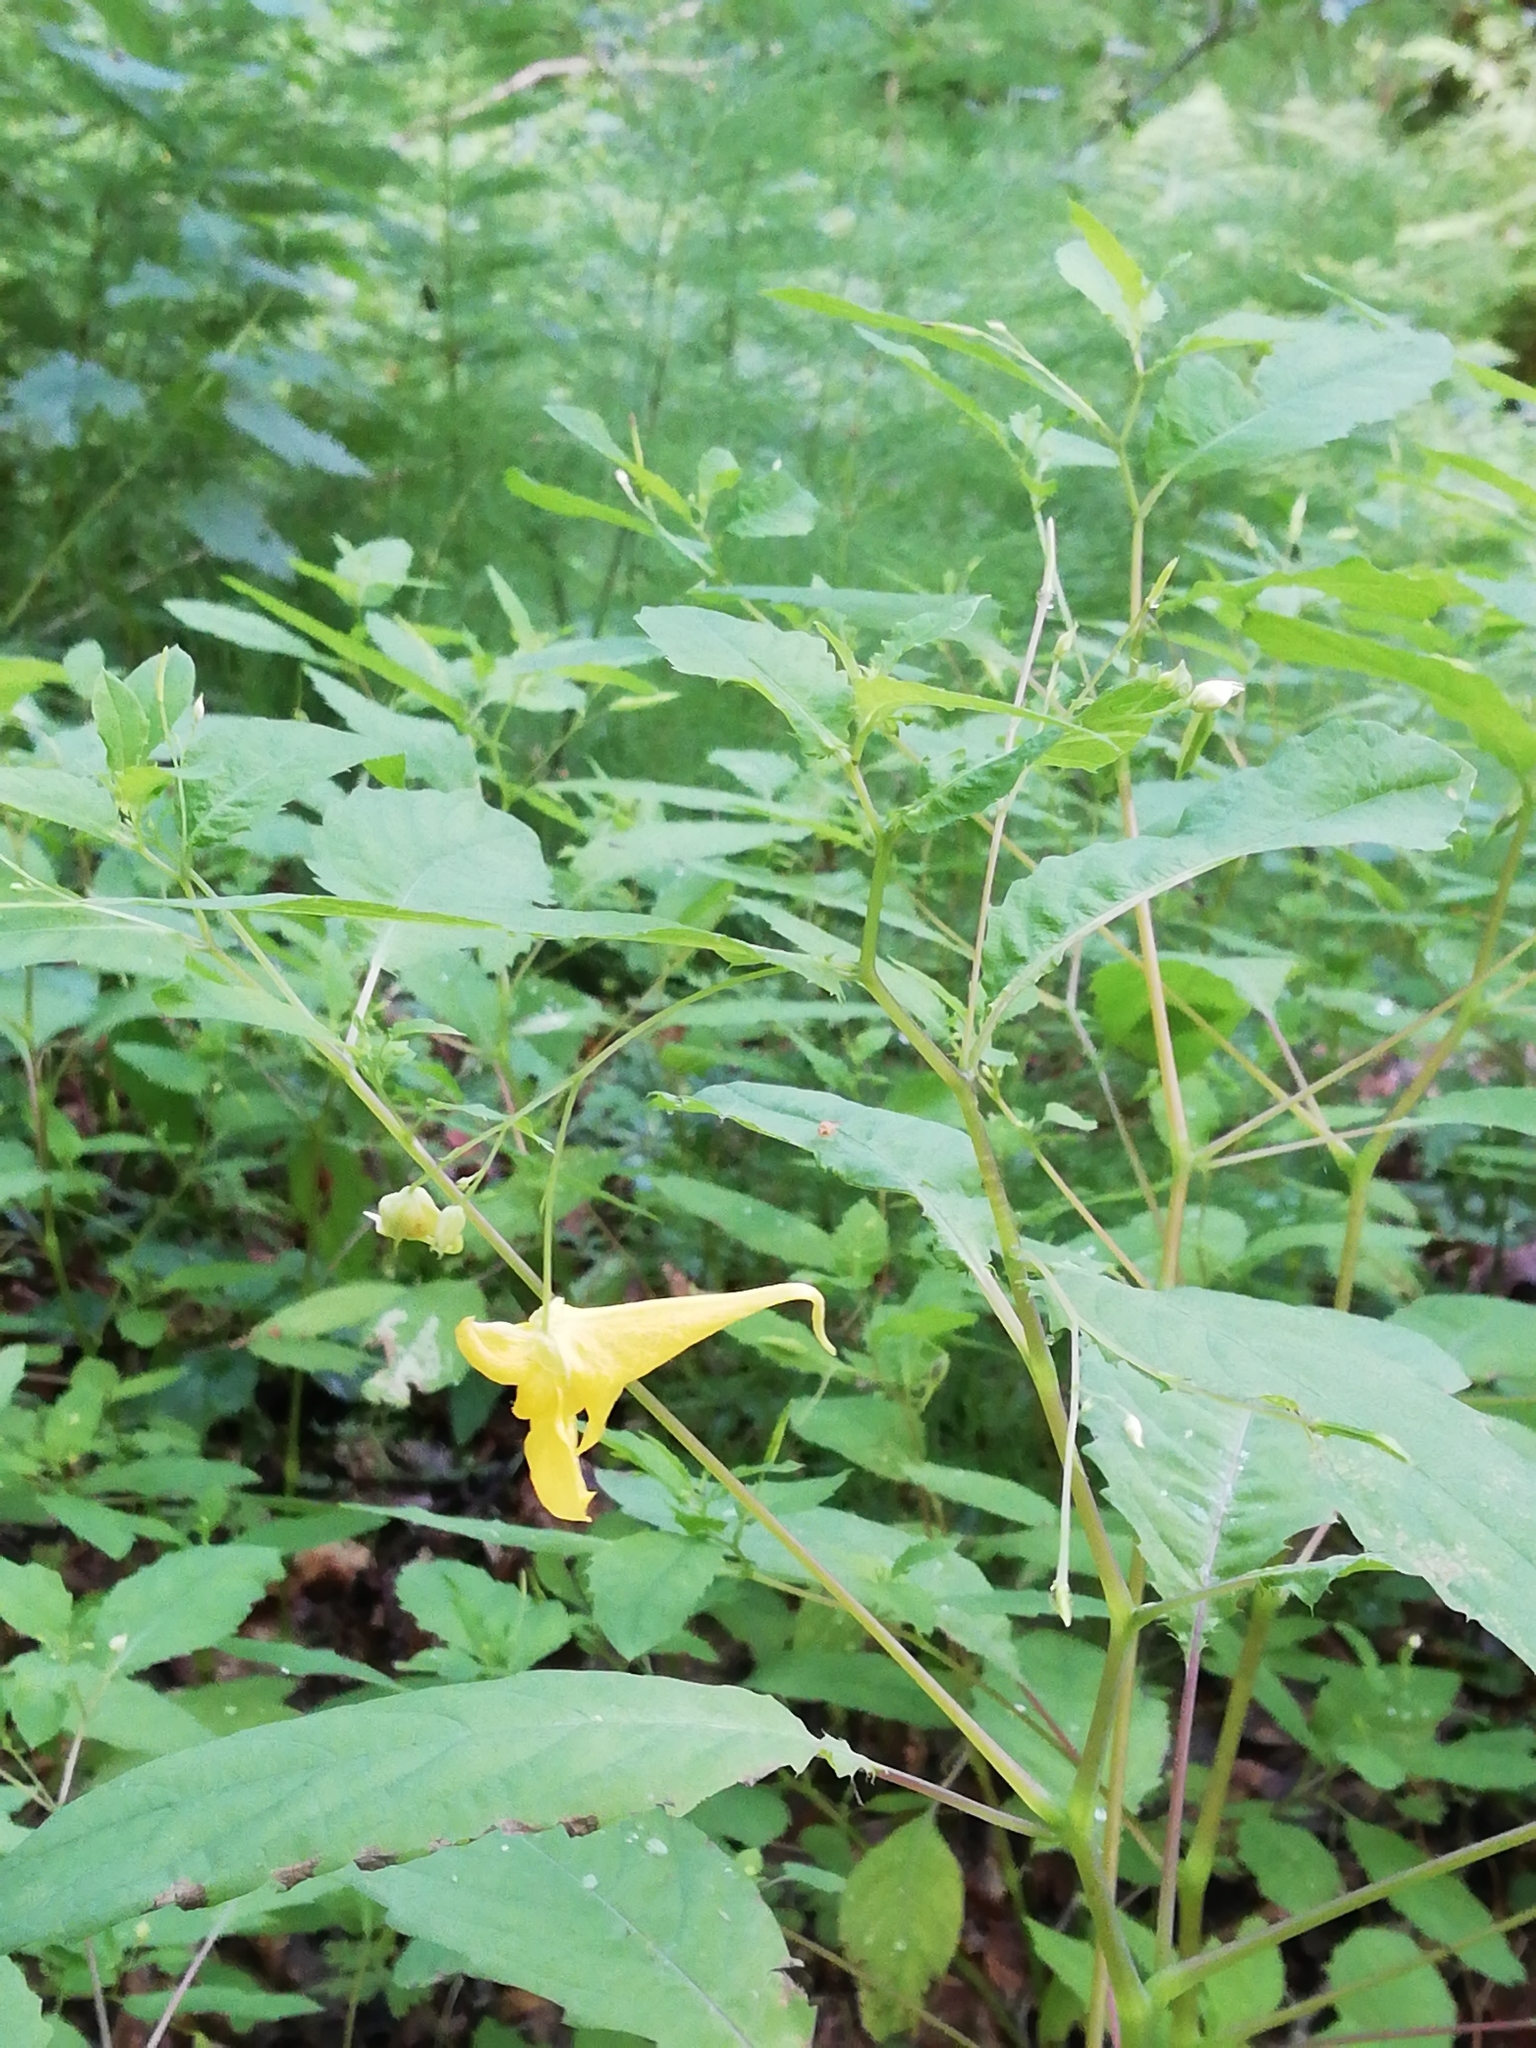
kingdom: Plantae
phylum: Tracheophyta
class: Magnoliopsida
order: Ericales
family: Balsaminaceae
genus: Impatiens
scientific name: Impatiens noli-tangere
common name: Touch-me-not balsam
